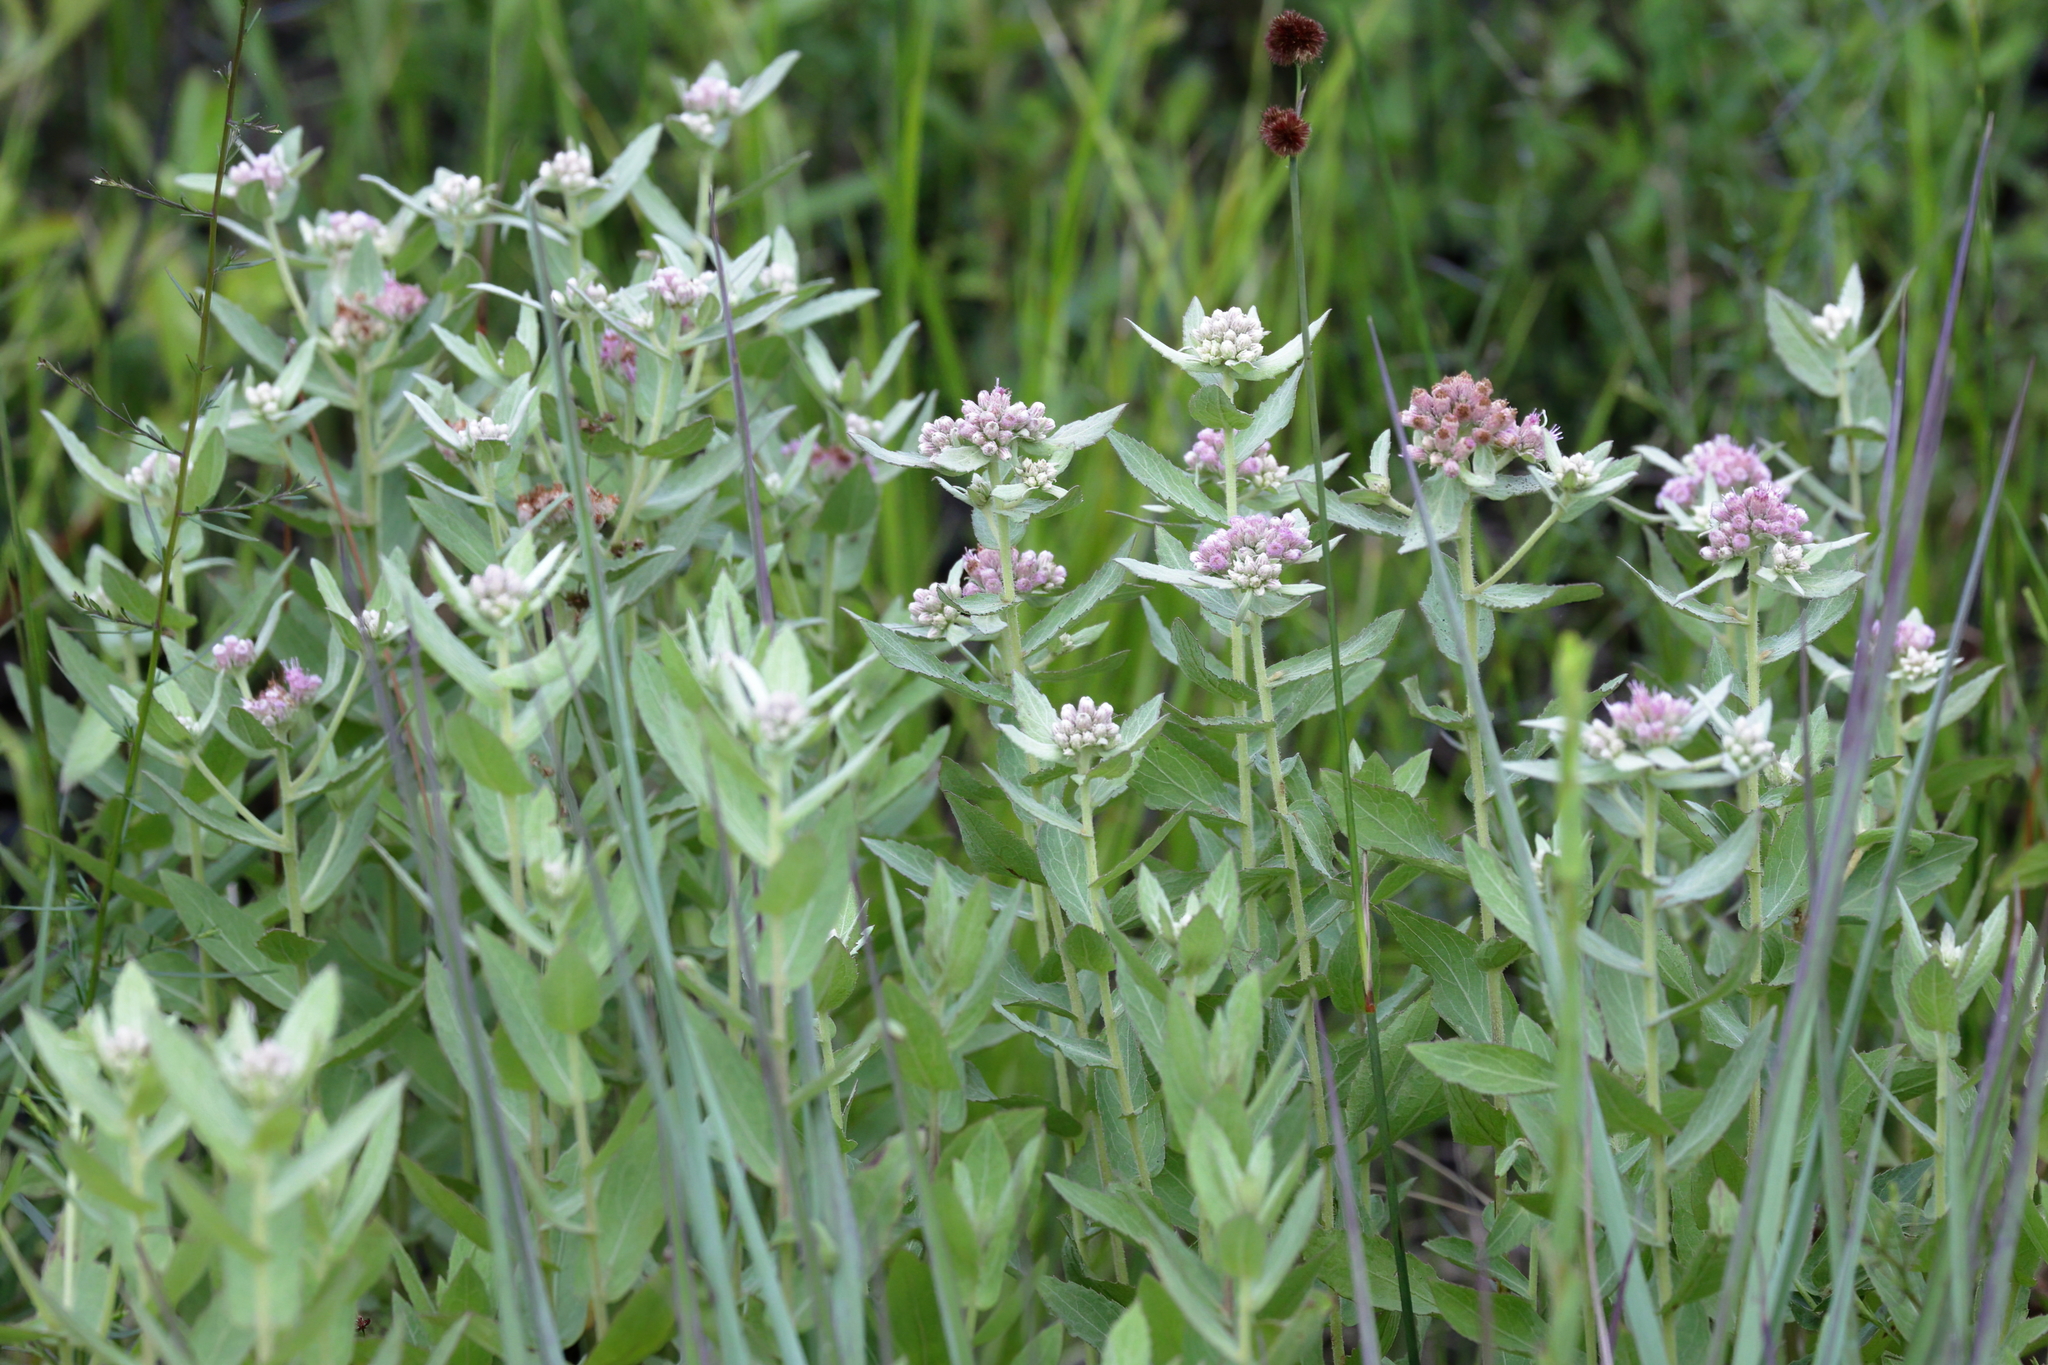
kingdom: Plantae
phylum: Tracheophyta
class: Magnoliopsida
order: Asterales
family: Asteraceae
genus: Pluchea
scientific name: Pluchea baccharis
